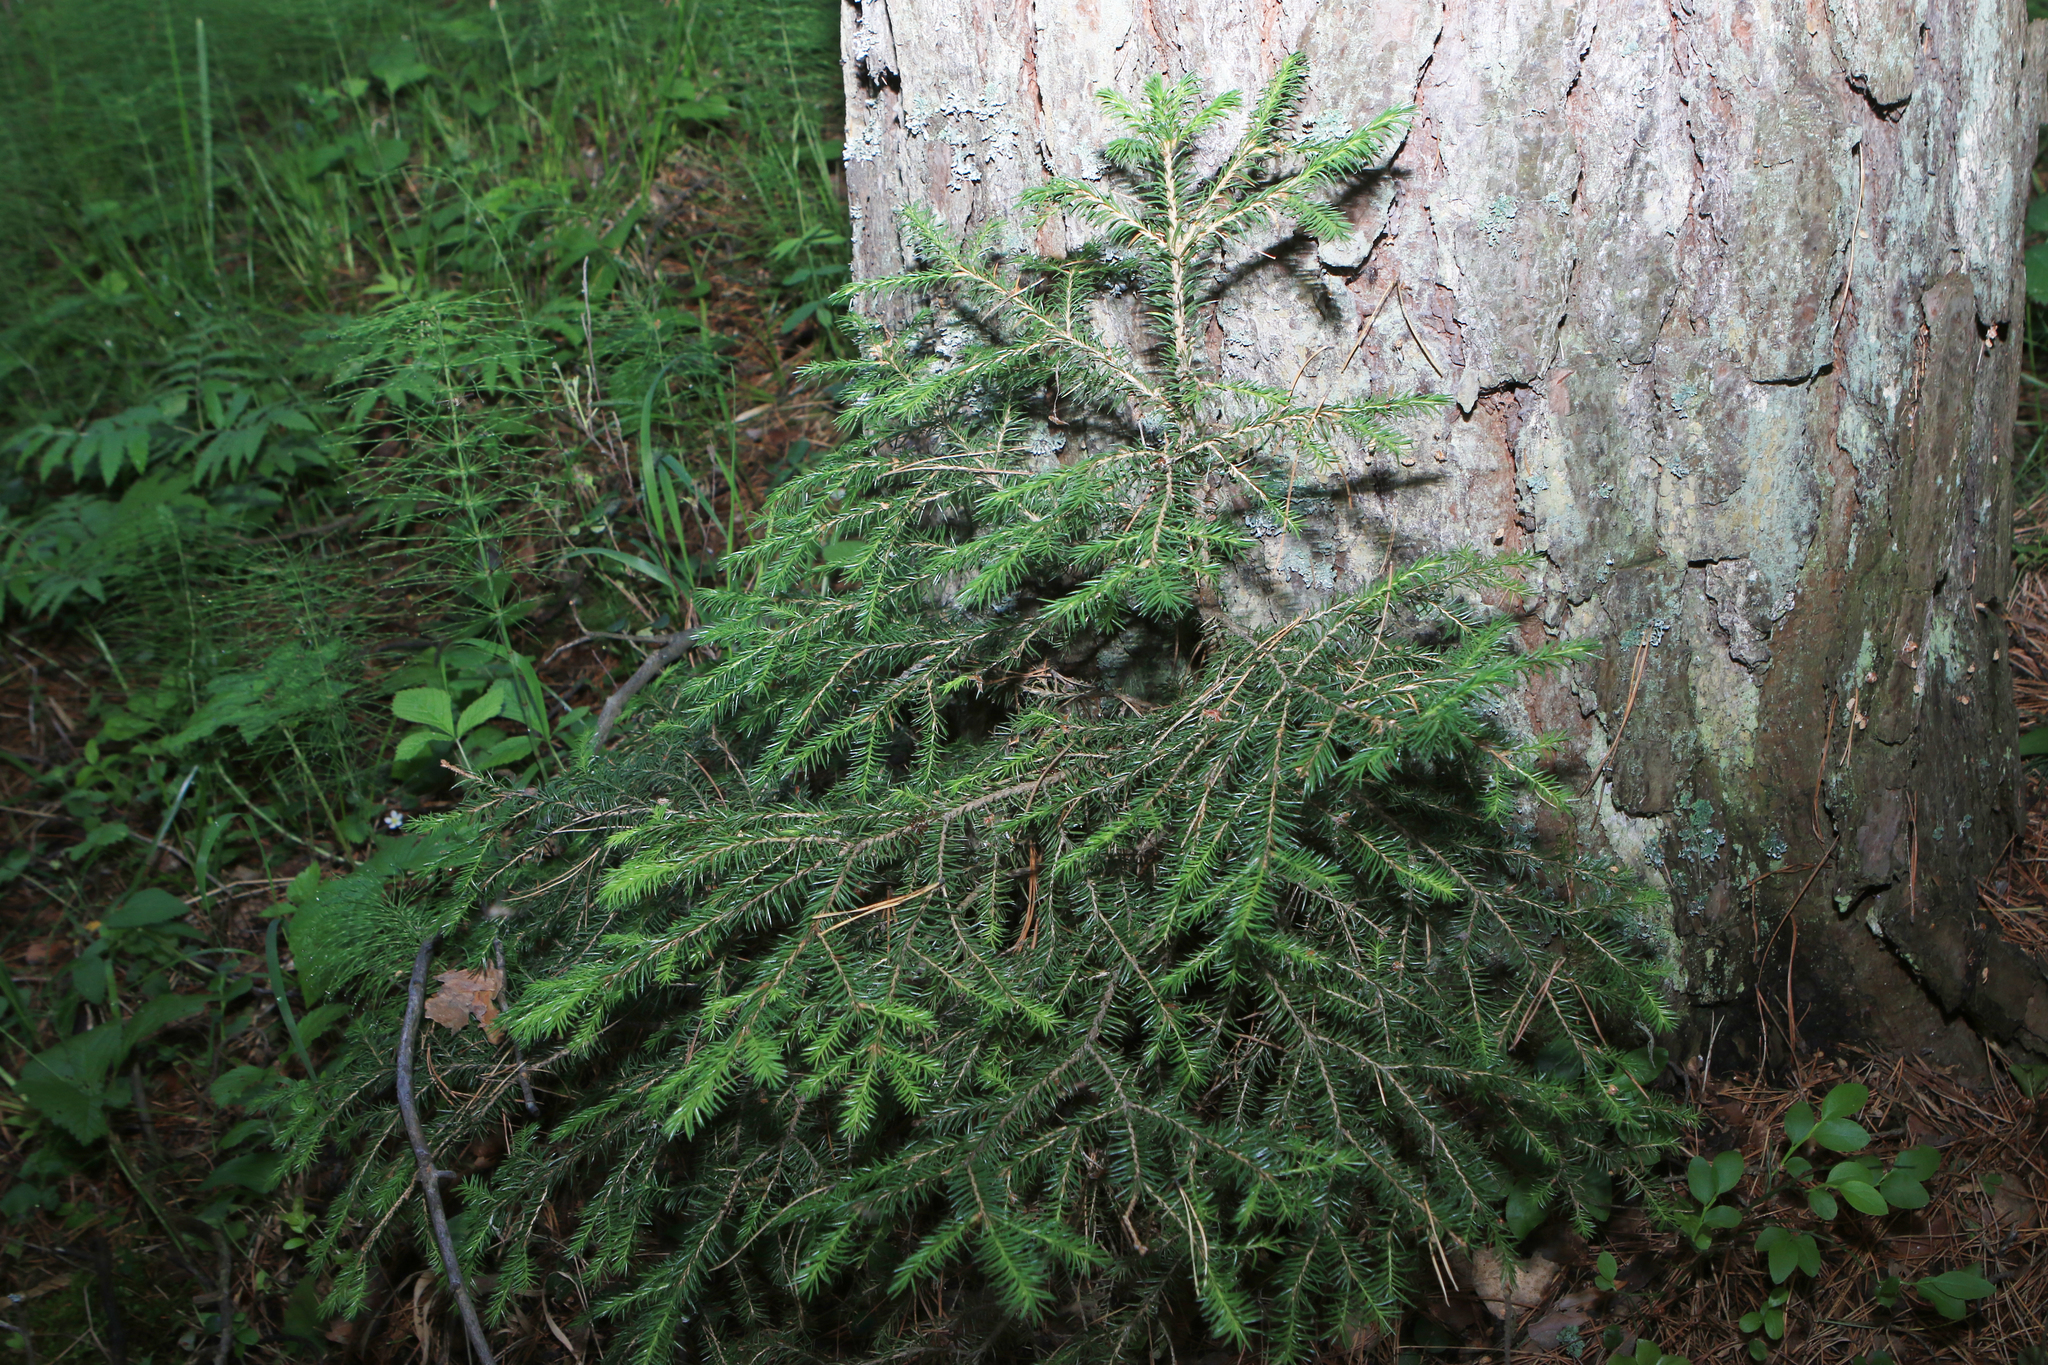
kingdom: Plantae
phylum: Tracheophyta
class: Pinopsida
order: Pinales
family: Pinaceae
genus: Picea
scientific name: Picea obovata
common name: Siberian spruce
